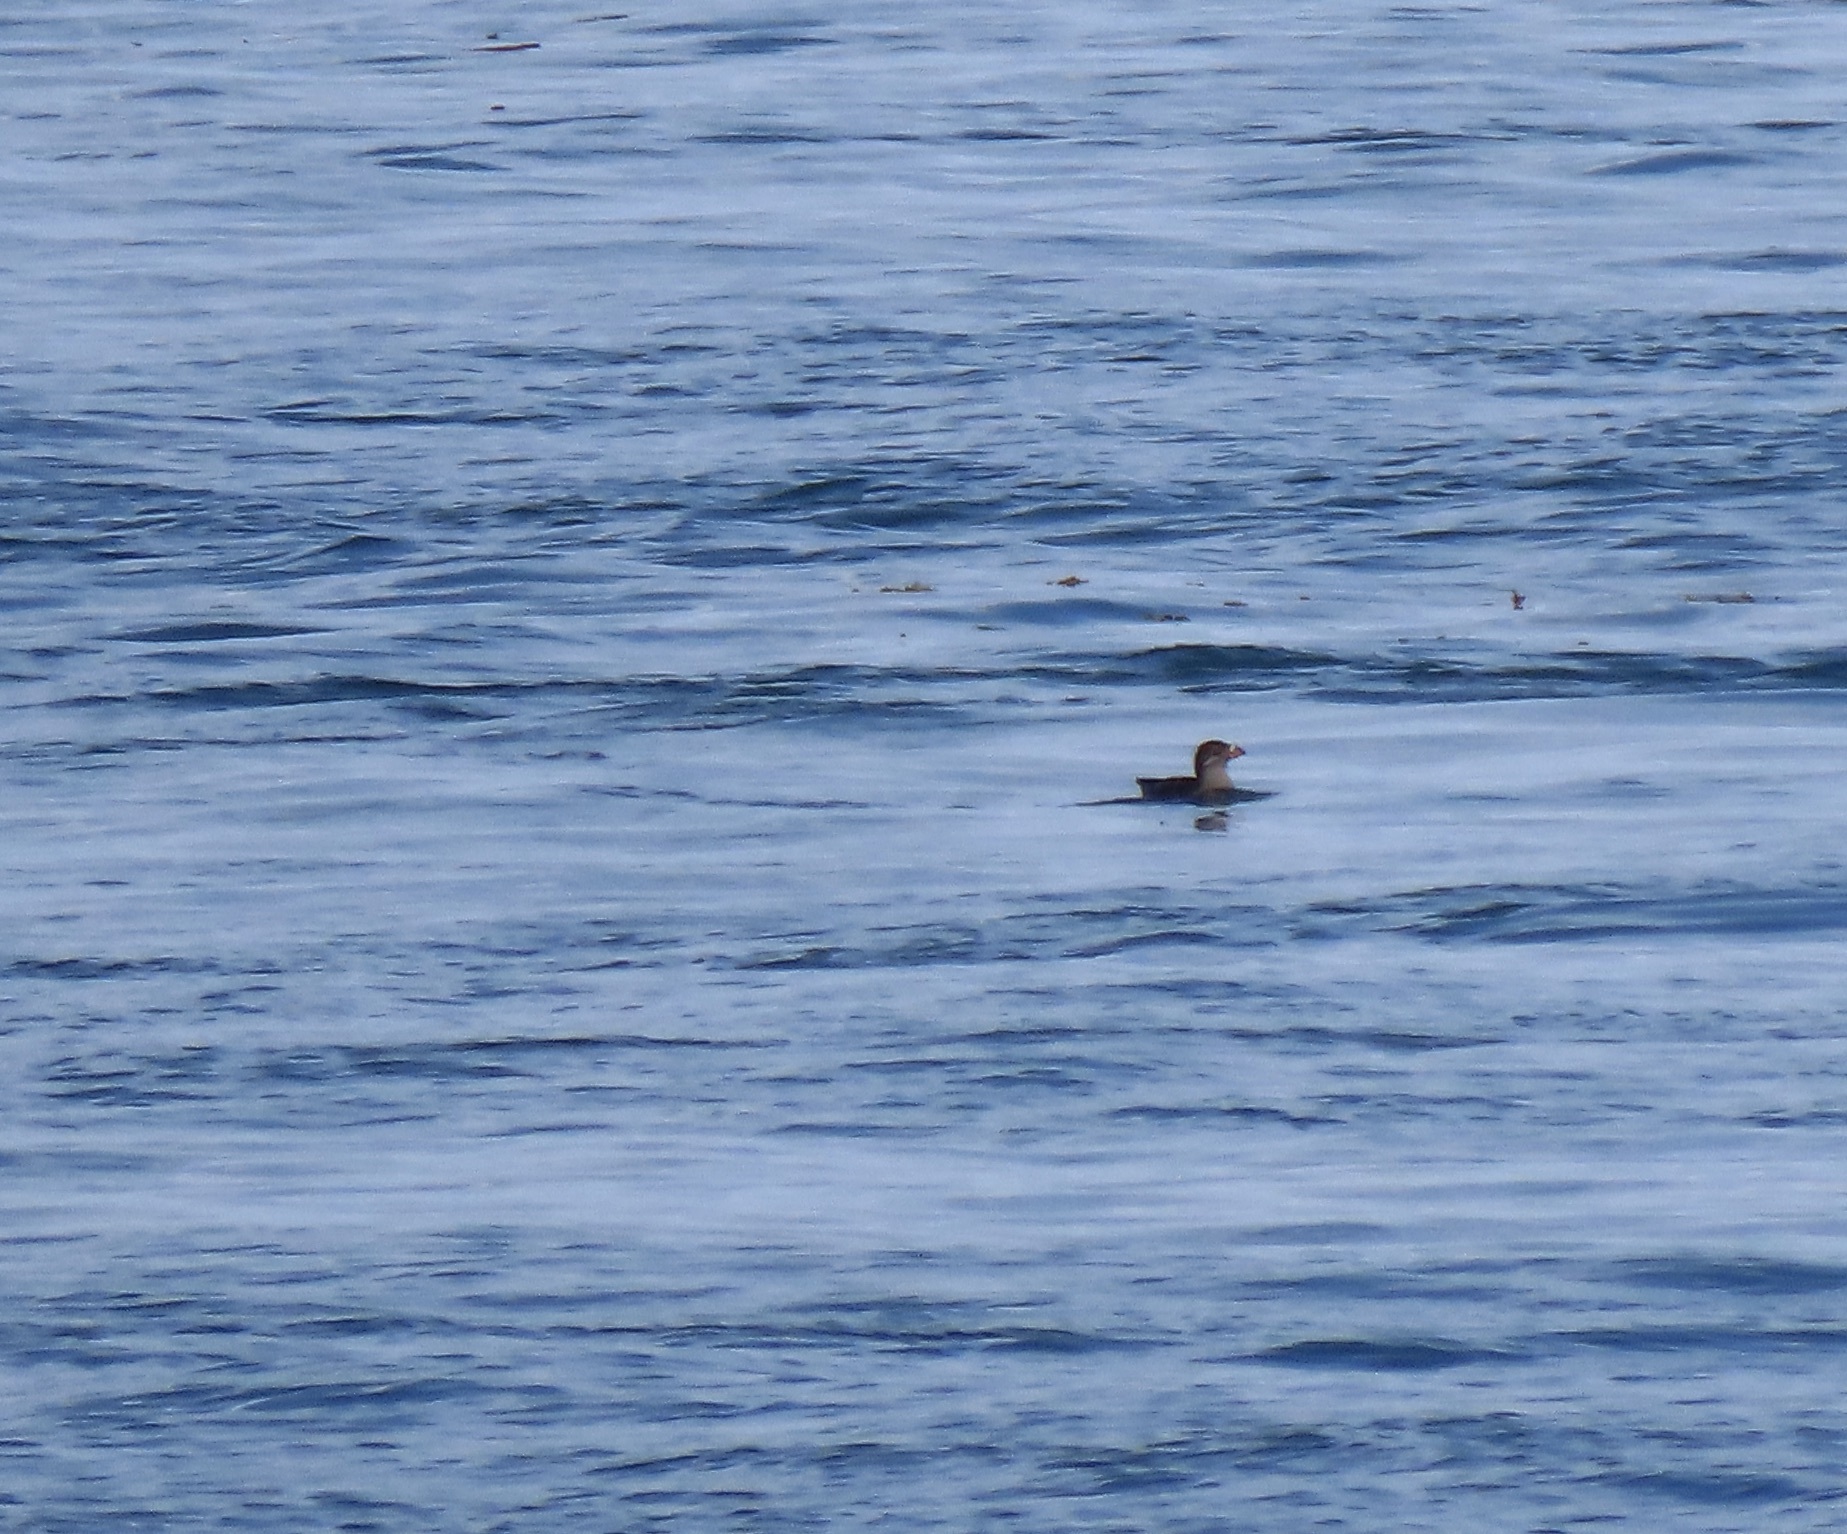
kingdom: Animalia
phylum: Chordata
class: Aves
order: Charadriiformes
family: Alcidae
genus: Cerorhinca
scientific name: Cerorhinca monocerata
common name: Rhinoceros auklet
